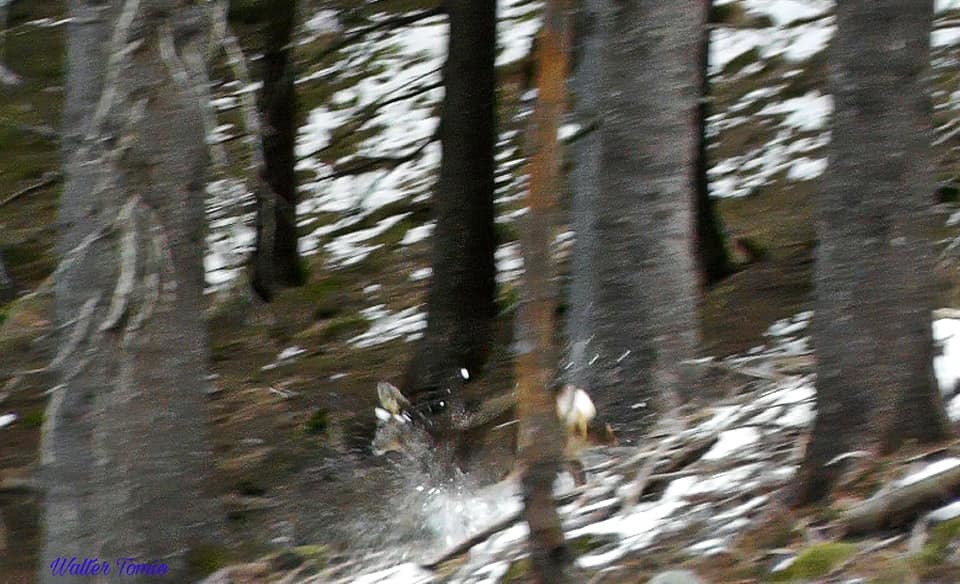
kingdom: Animalia
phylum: Chordata
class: Mammalia
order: Artiodactyla
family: Cervidae
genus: Capreolus
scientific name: Capreolus capreolus
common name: Western roe deer
